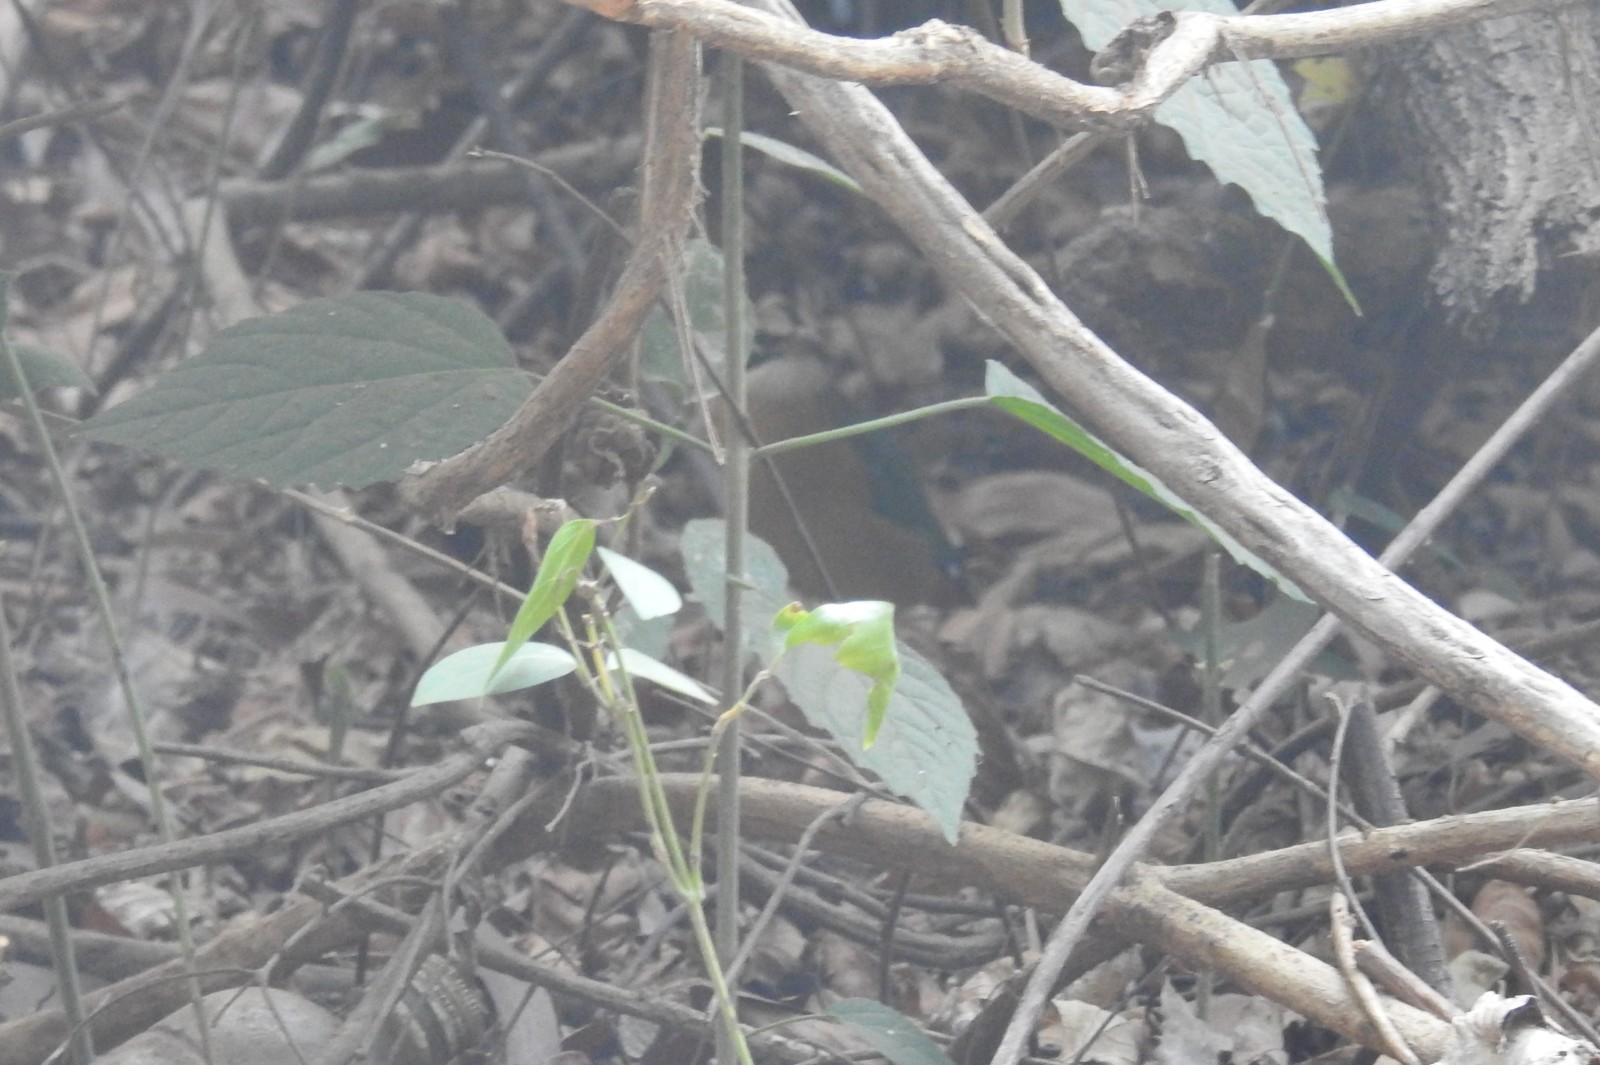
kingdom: Animalia
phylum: Chordata
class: Aves
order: Passeriformes
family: Pittidae
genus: Pitta
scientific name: Pitta brachyura
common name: Indian pitta
